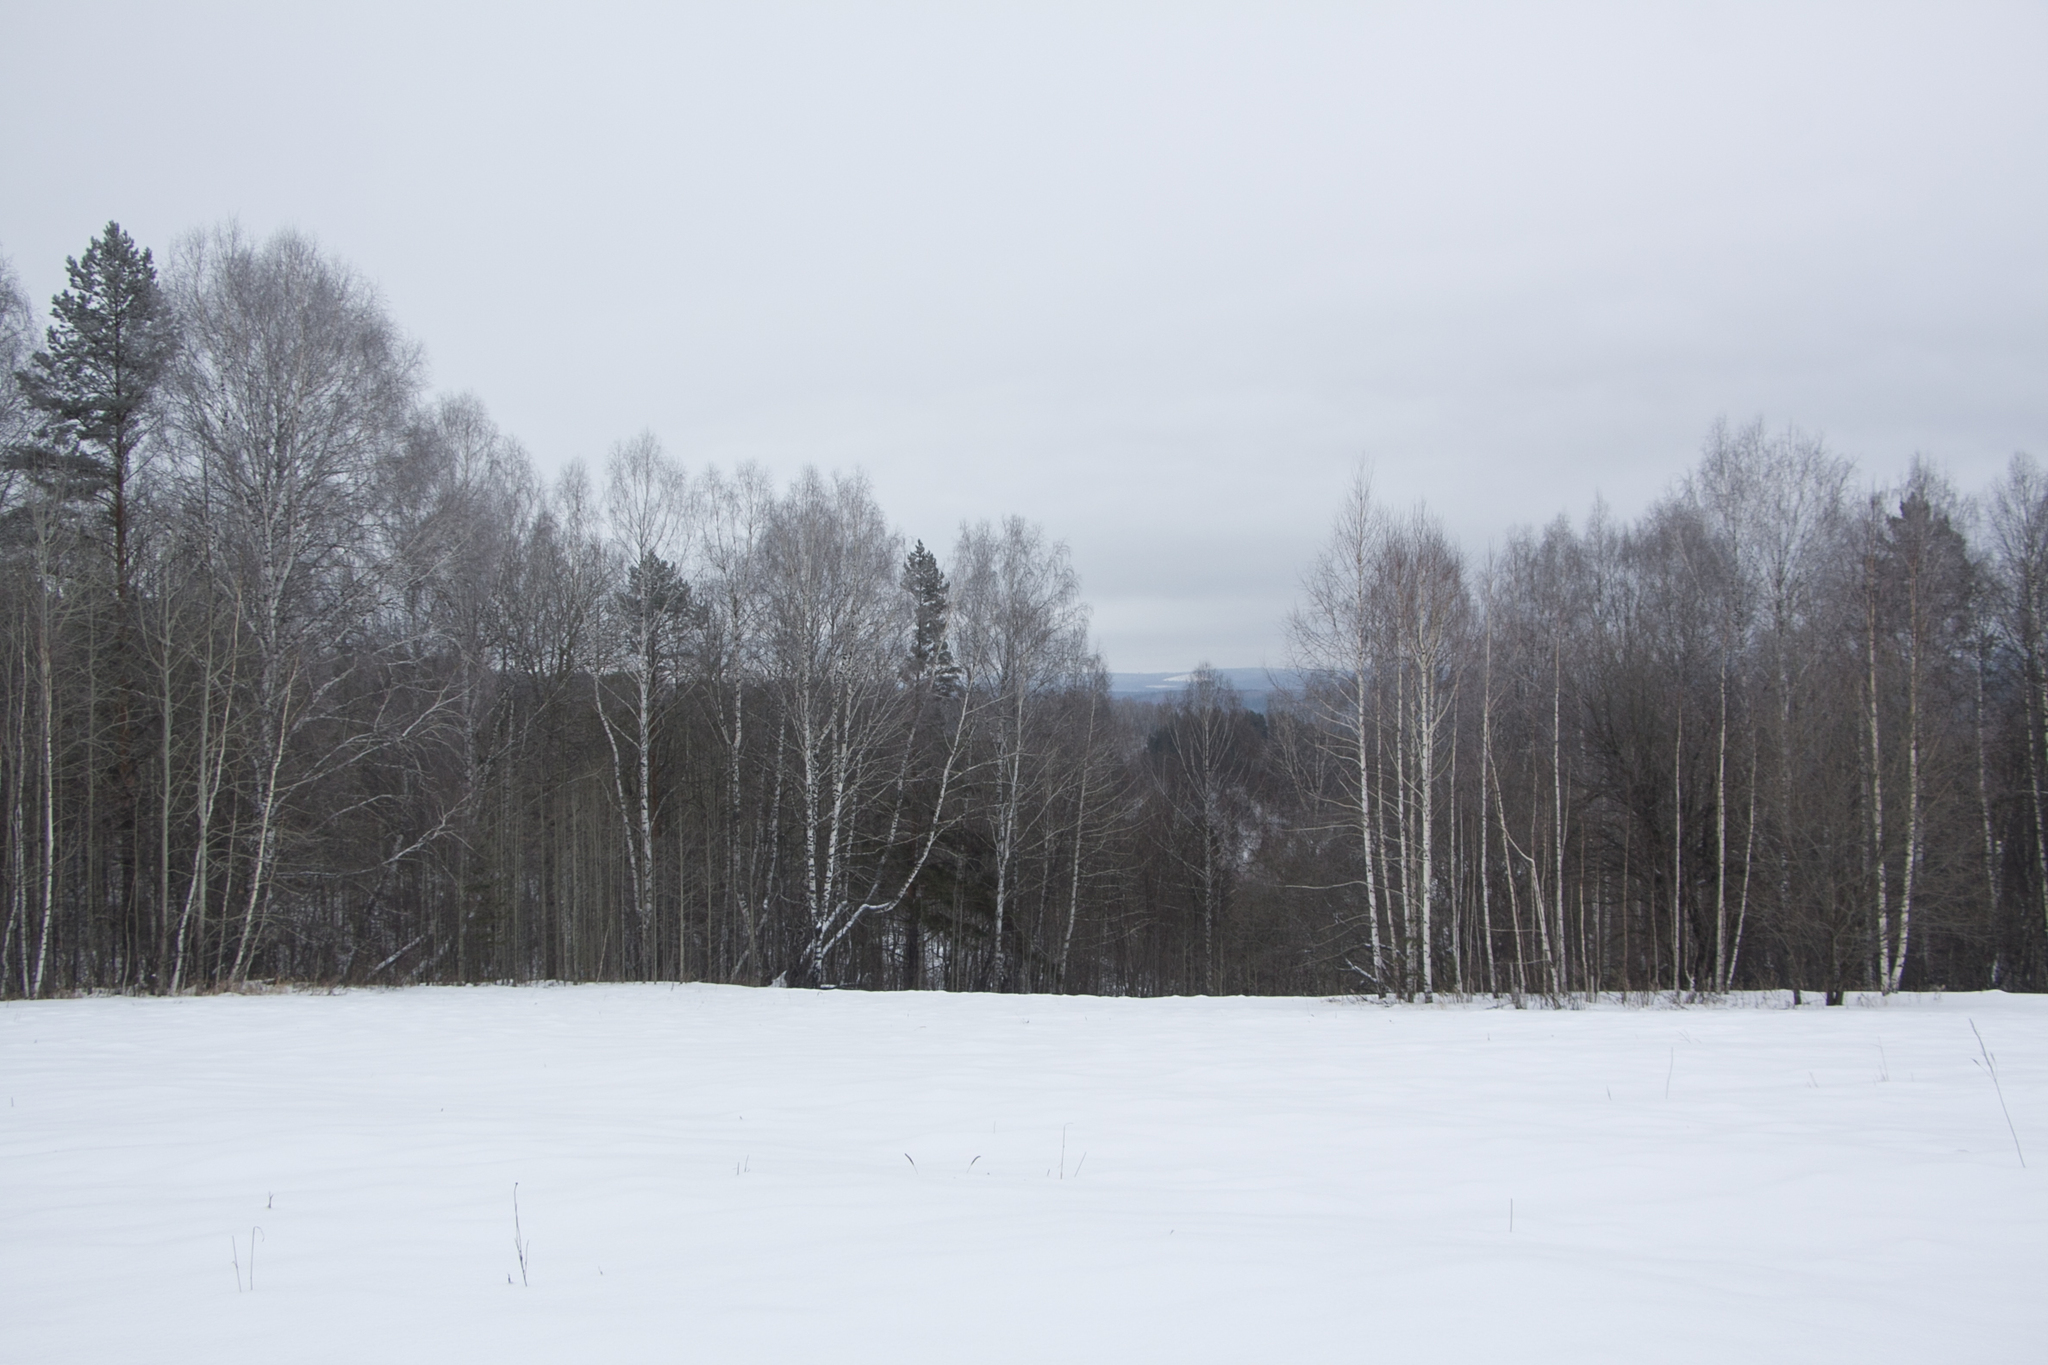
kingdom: Plantae
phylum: Tracheophyta
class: Magnoliopsida
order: Fagales
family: Betulaceae
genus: Betula
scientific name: Betula pendula
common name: Silver birch
